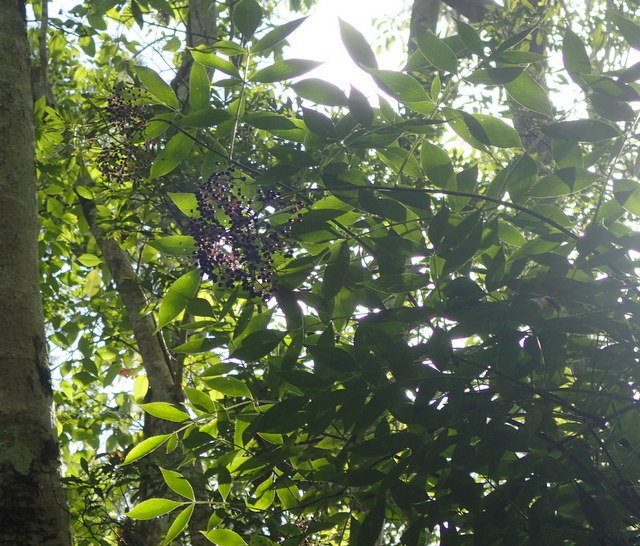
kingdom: Plantae
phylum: Tracheophyta
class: Magnoliopsida
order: Dipsacales
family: Viburnaceae
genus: Sambucus
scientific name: Sambucus canadensis
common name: American elder
